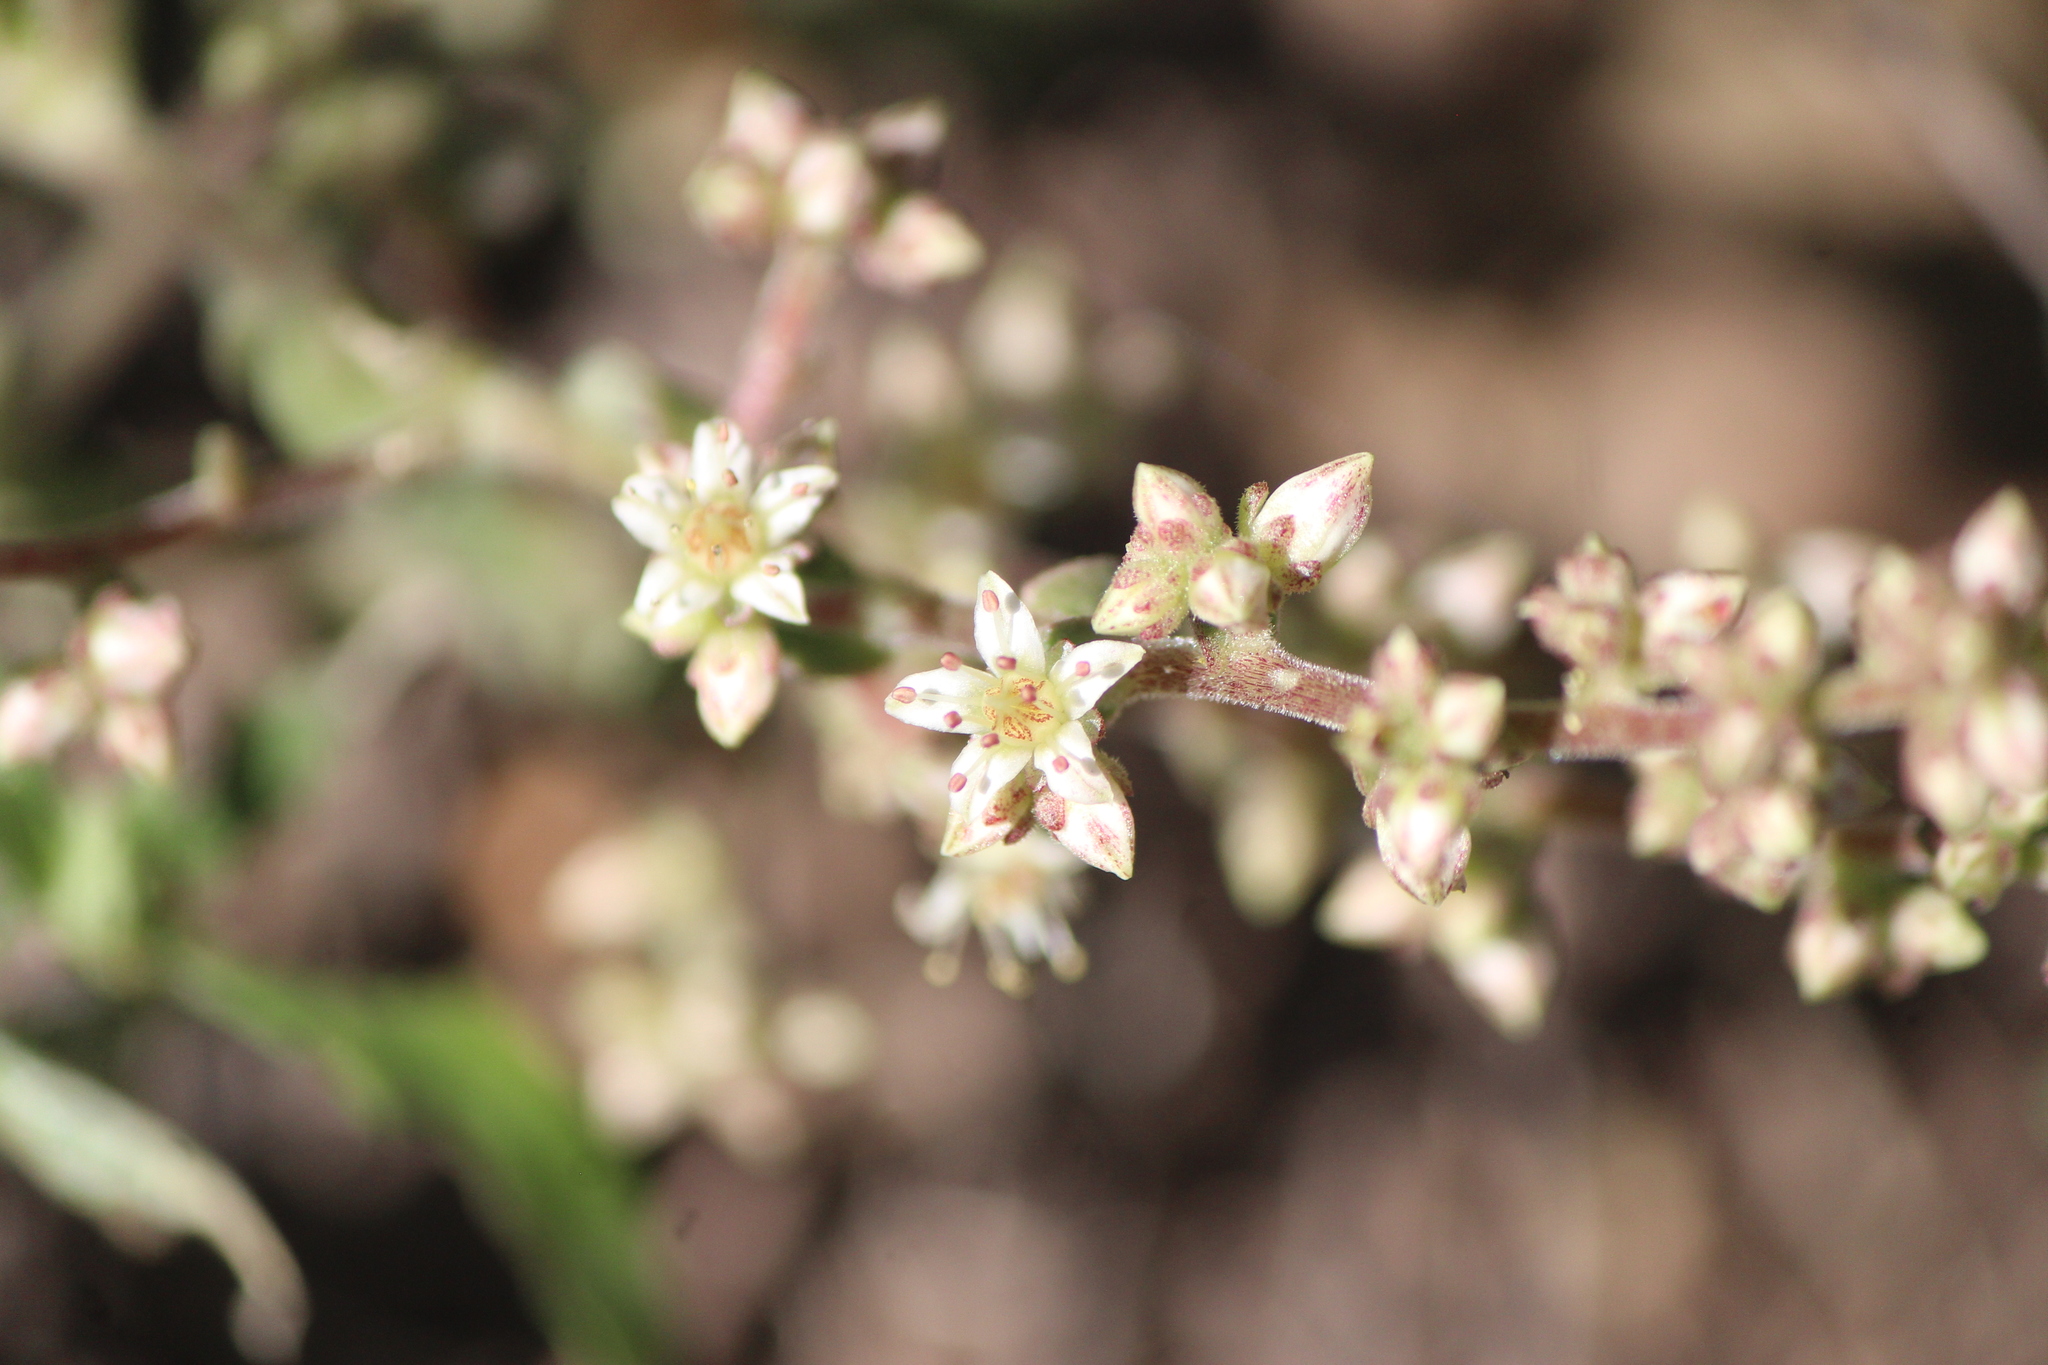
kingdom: Plantae
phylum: Tracheophyta
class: Magnoliopsida
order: Saxifragales
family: Crassulaceae
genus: Sedum
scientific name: Sedum ebracteatum
